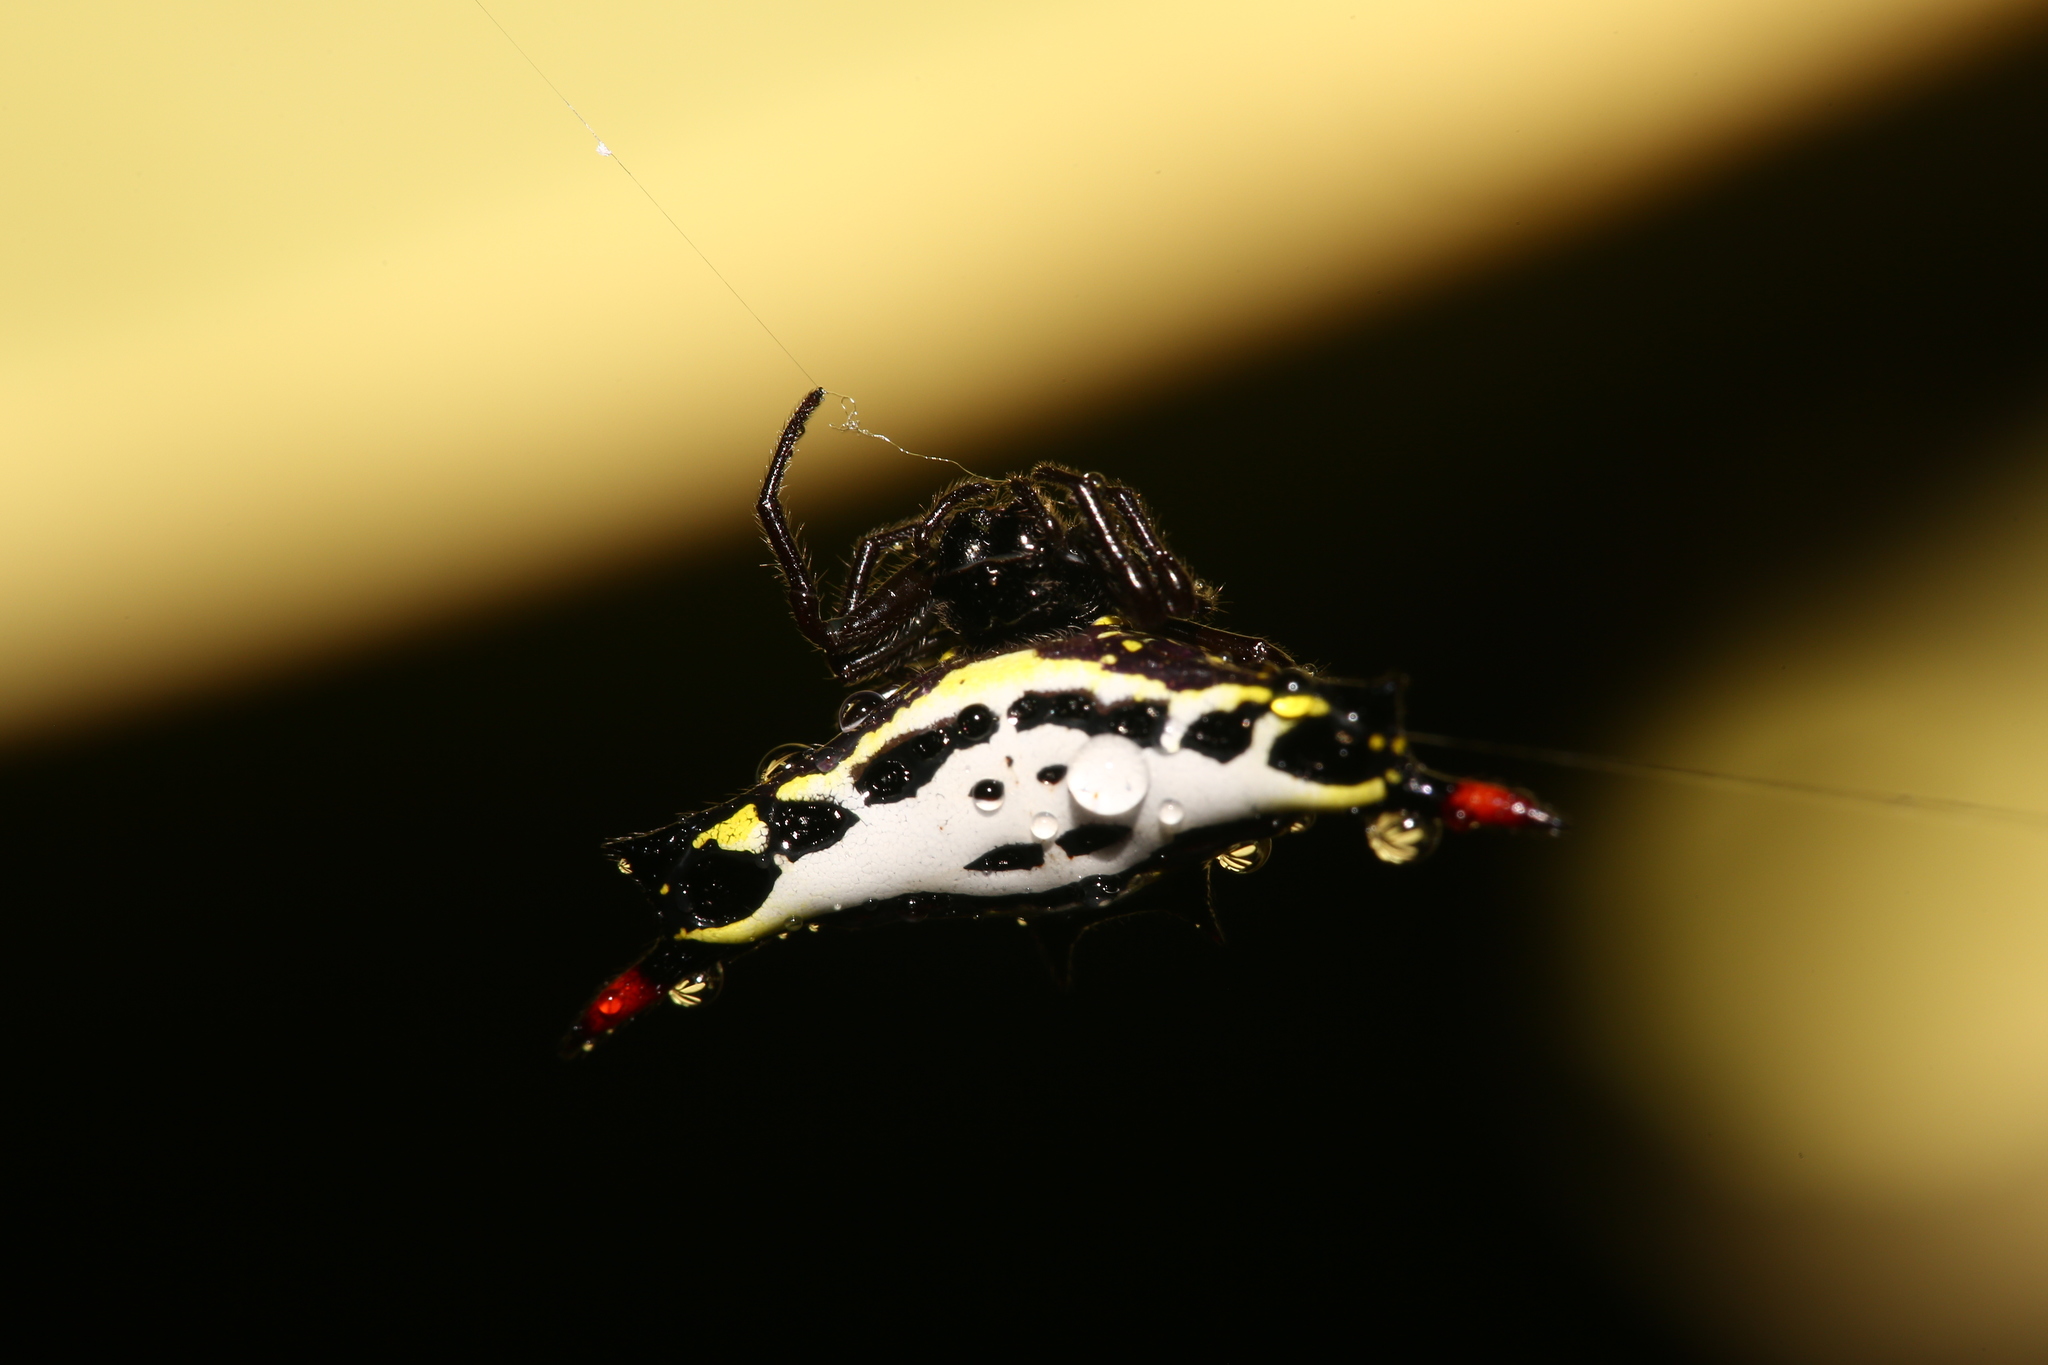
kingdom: Animalia
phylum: Arthropoda
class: Arachnida
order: Araneae
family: Araneidae
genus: Gasteracantha
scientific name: Gasteracantha westringi
